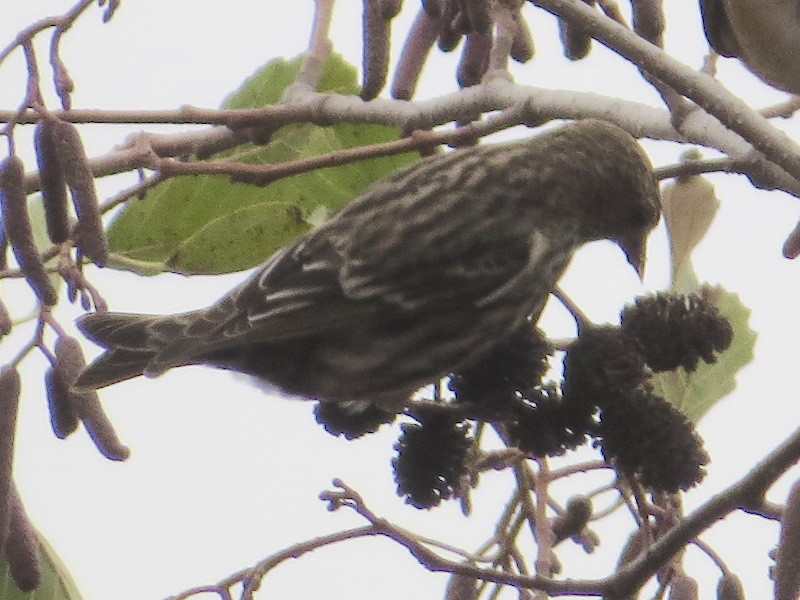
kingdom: Animalia
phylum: Chordata
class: Aves
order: Passeriformes
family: Fringillidae
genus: Spinus
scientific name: Spinus pinus
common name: Pine siskin
